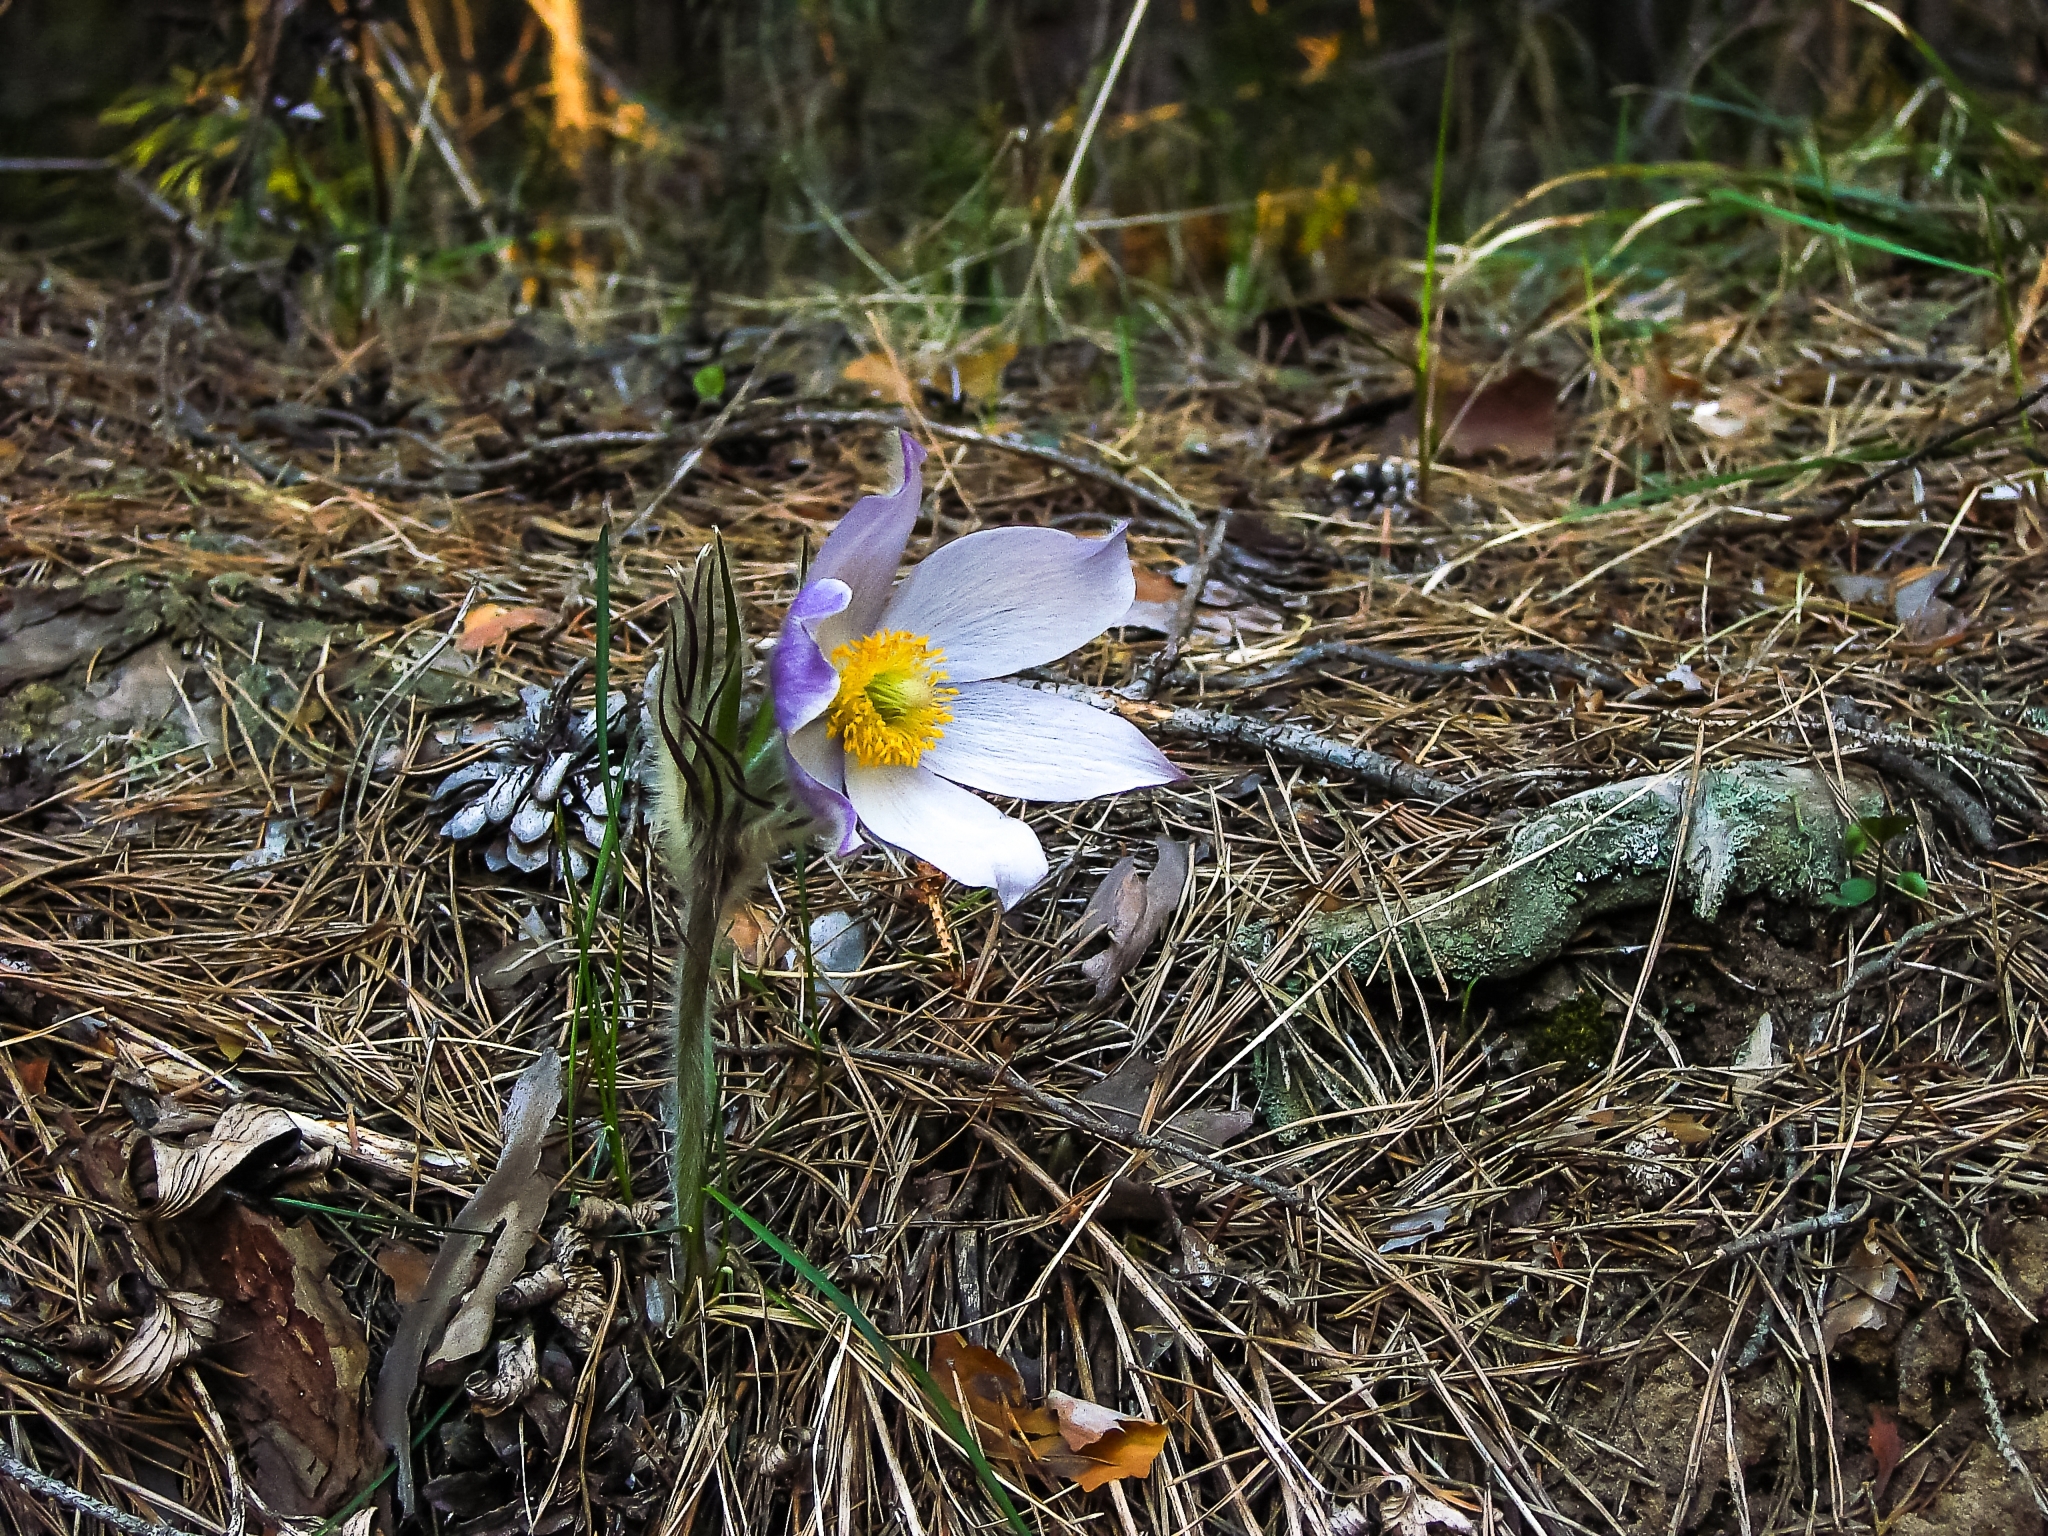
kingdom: Plantae
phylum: Tracheophyta
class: Magnoliopsida
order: Ranunculales
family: Ranunculaceae
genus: Pulsatilla
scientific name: Pulsatilla patens
